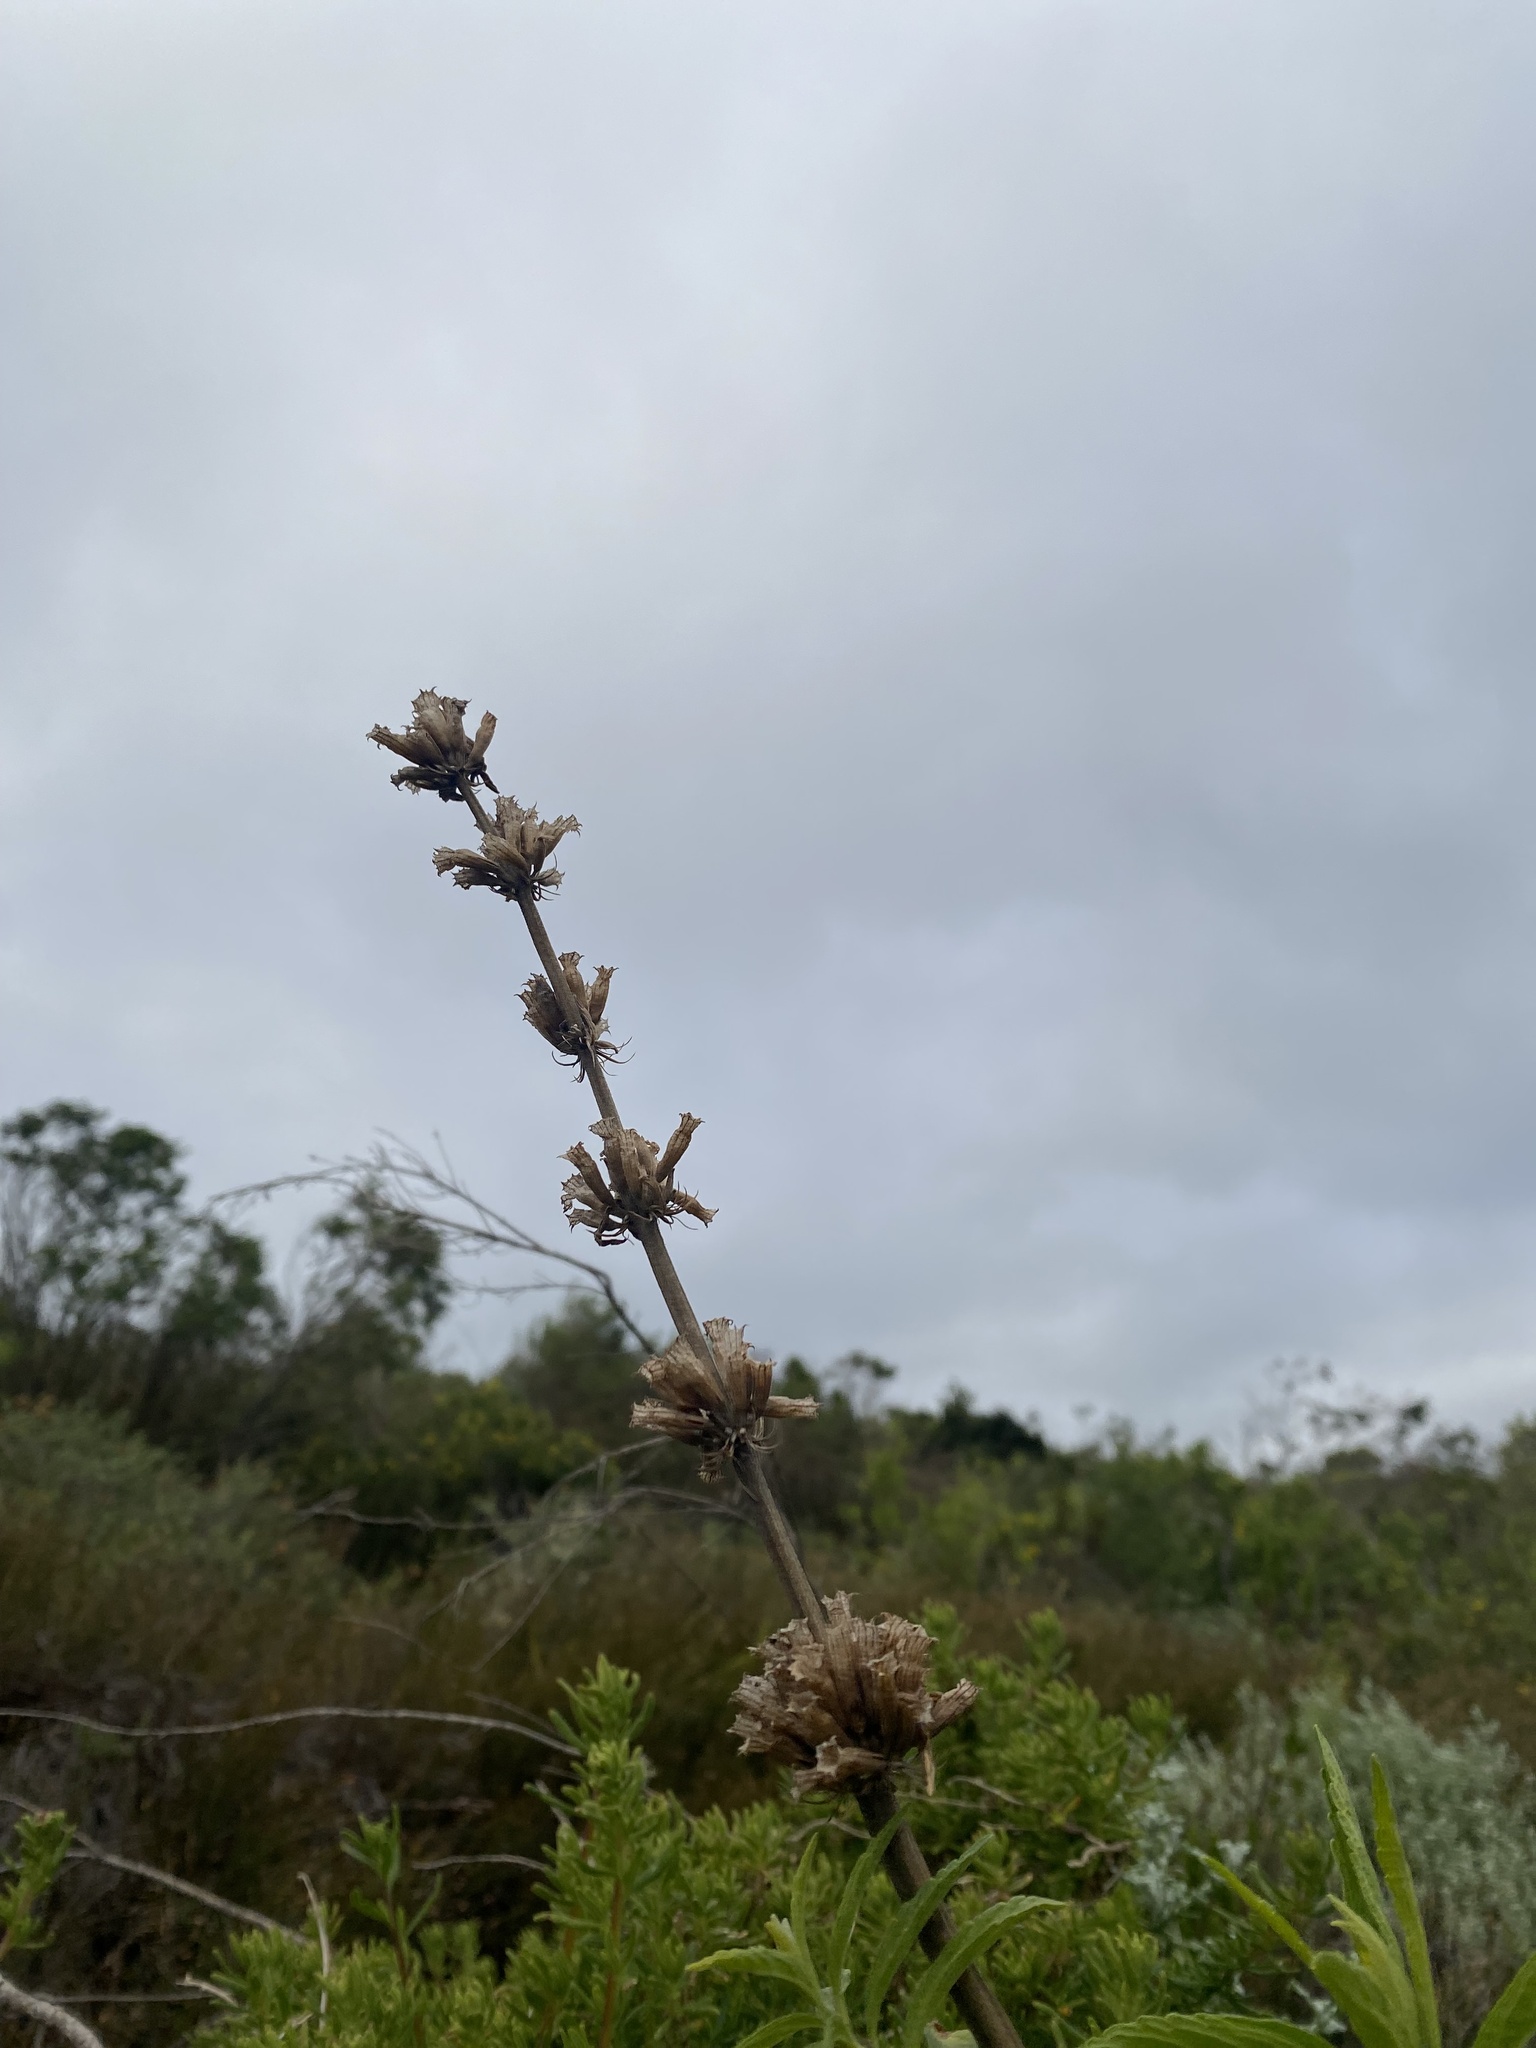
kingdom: Plantae
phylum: Tracheophyta
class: Magnoliopsida
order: Lamiales
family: Lamiaceae
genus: Leonotis
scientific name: Leonotis leonurus
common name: Lion's ear
